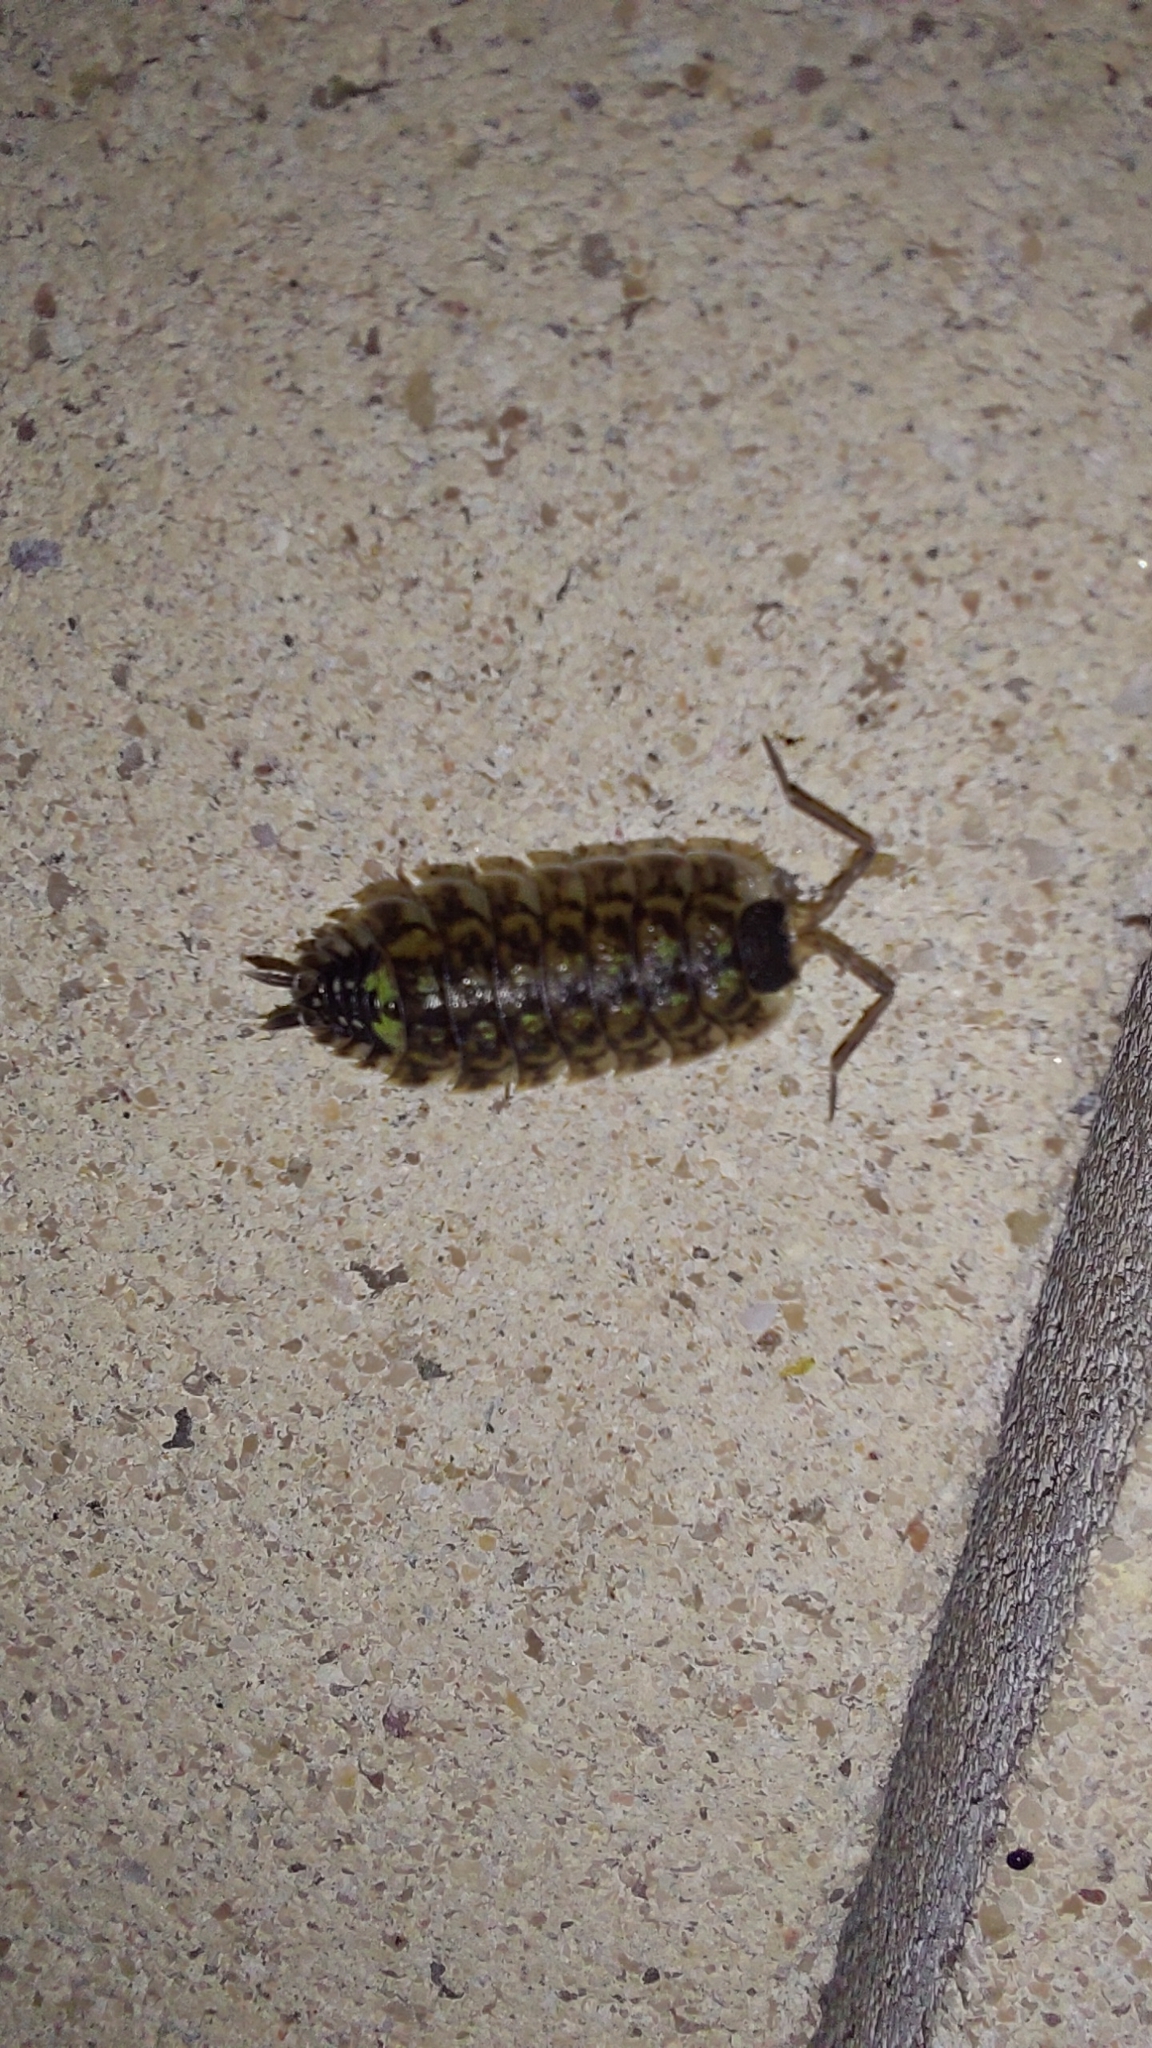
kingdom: Animalia
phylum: Arthropoda
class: Malacostraca
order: Isopoda
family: Porcellionidae
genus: Porcellio
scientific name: Porcellio spinicornis
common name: Painted woodlouse
